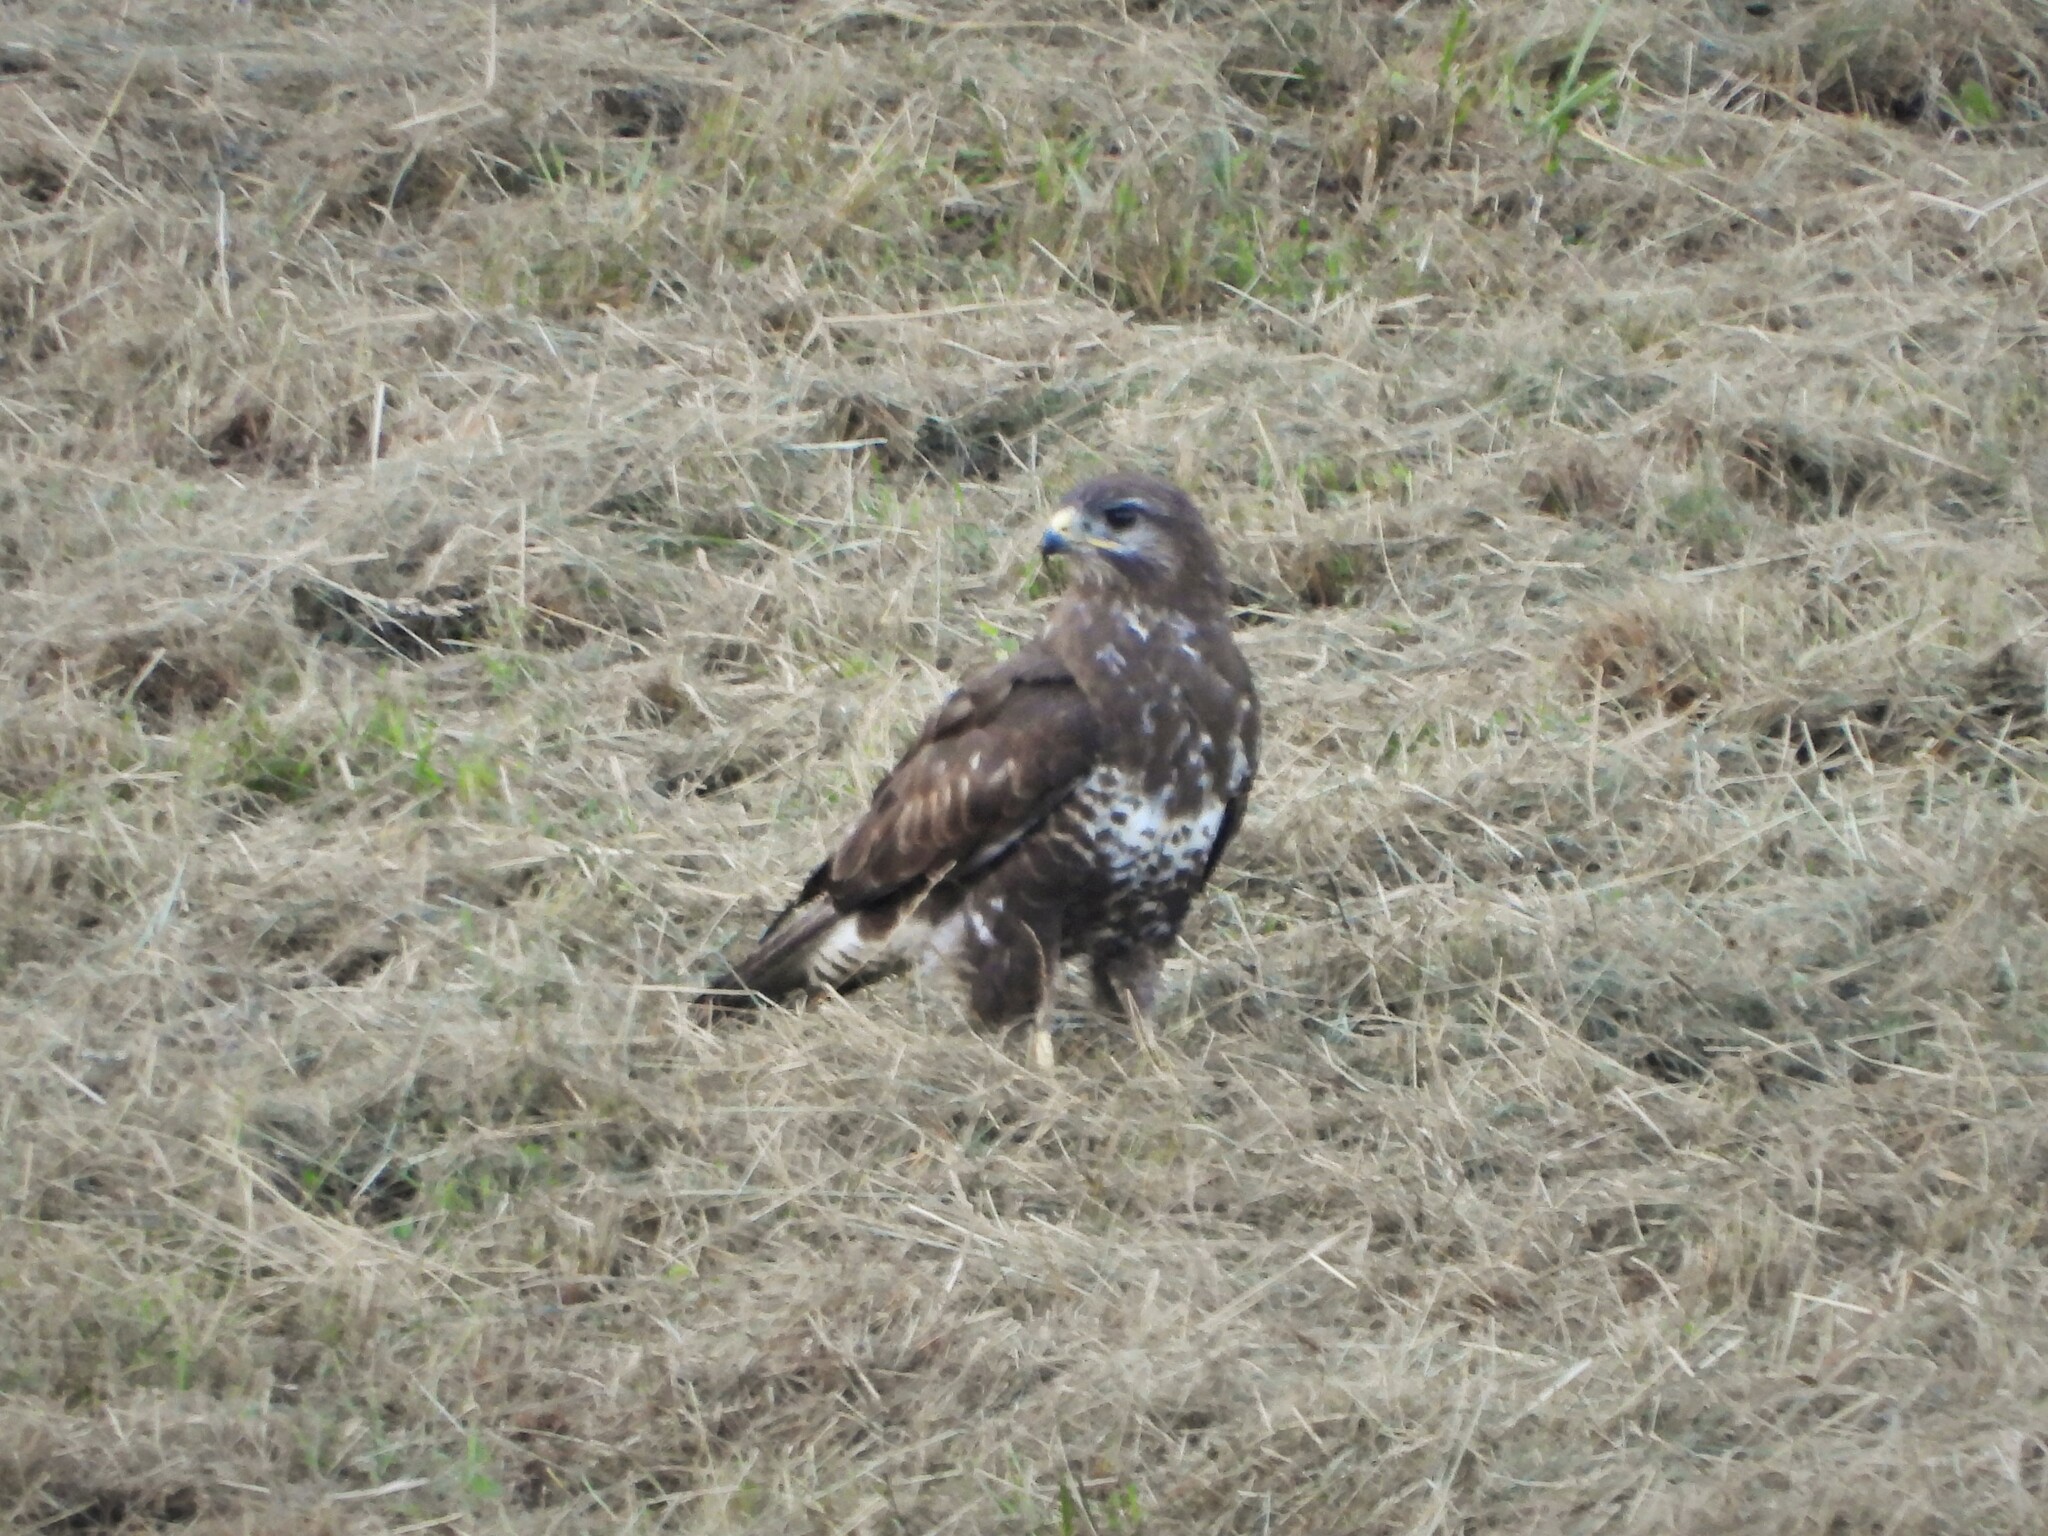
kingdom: Animalia
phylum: Chordata
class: Aves
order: Accipitriformes
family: Accipitridae
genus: Buteo
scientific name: Buteo buteo
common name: Common buzzard
